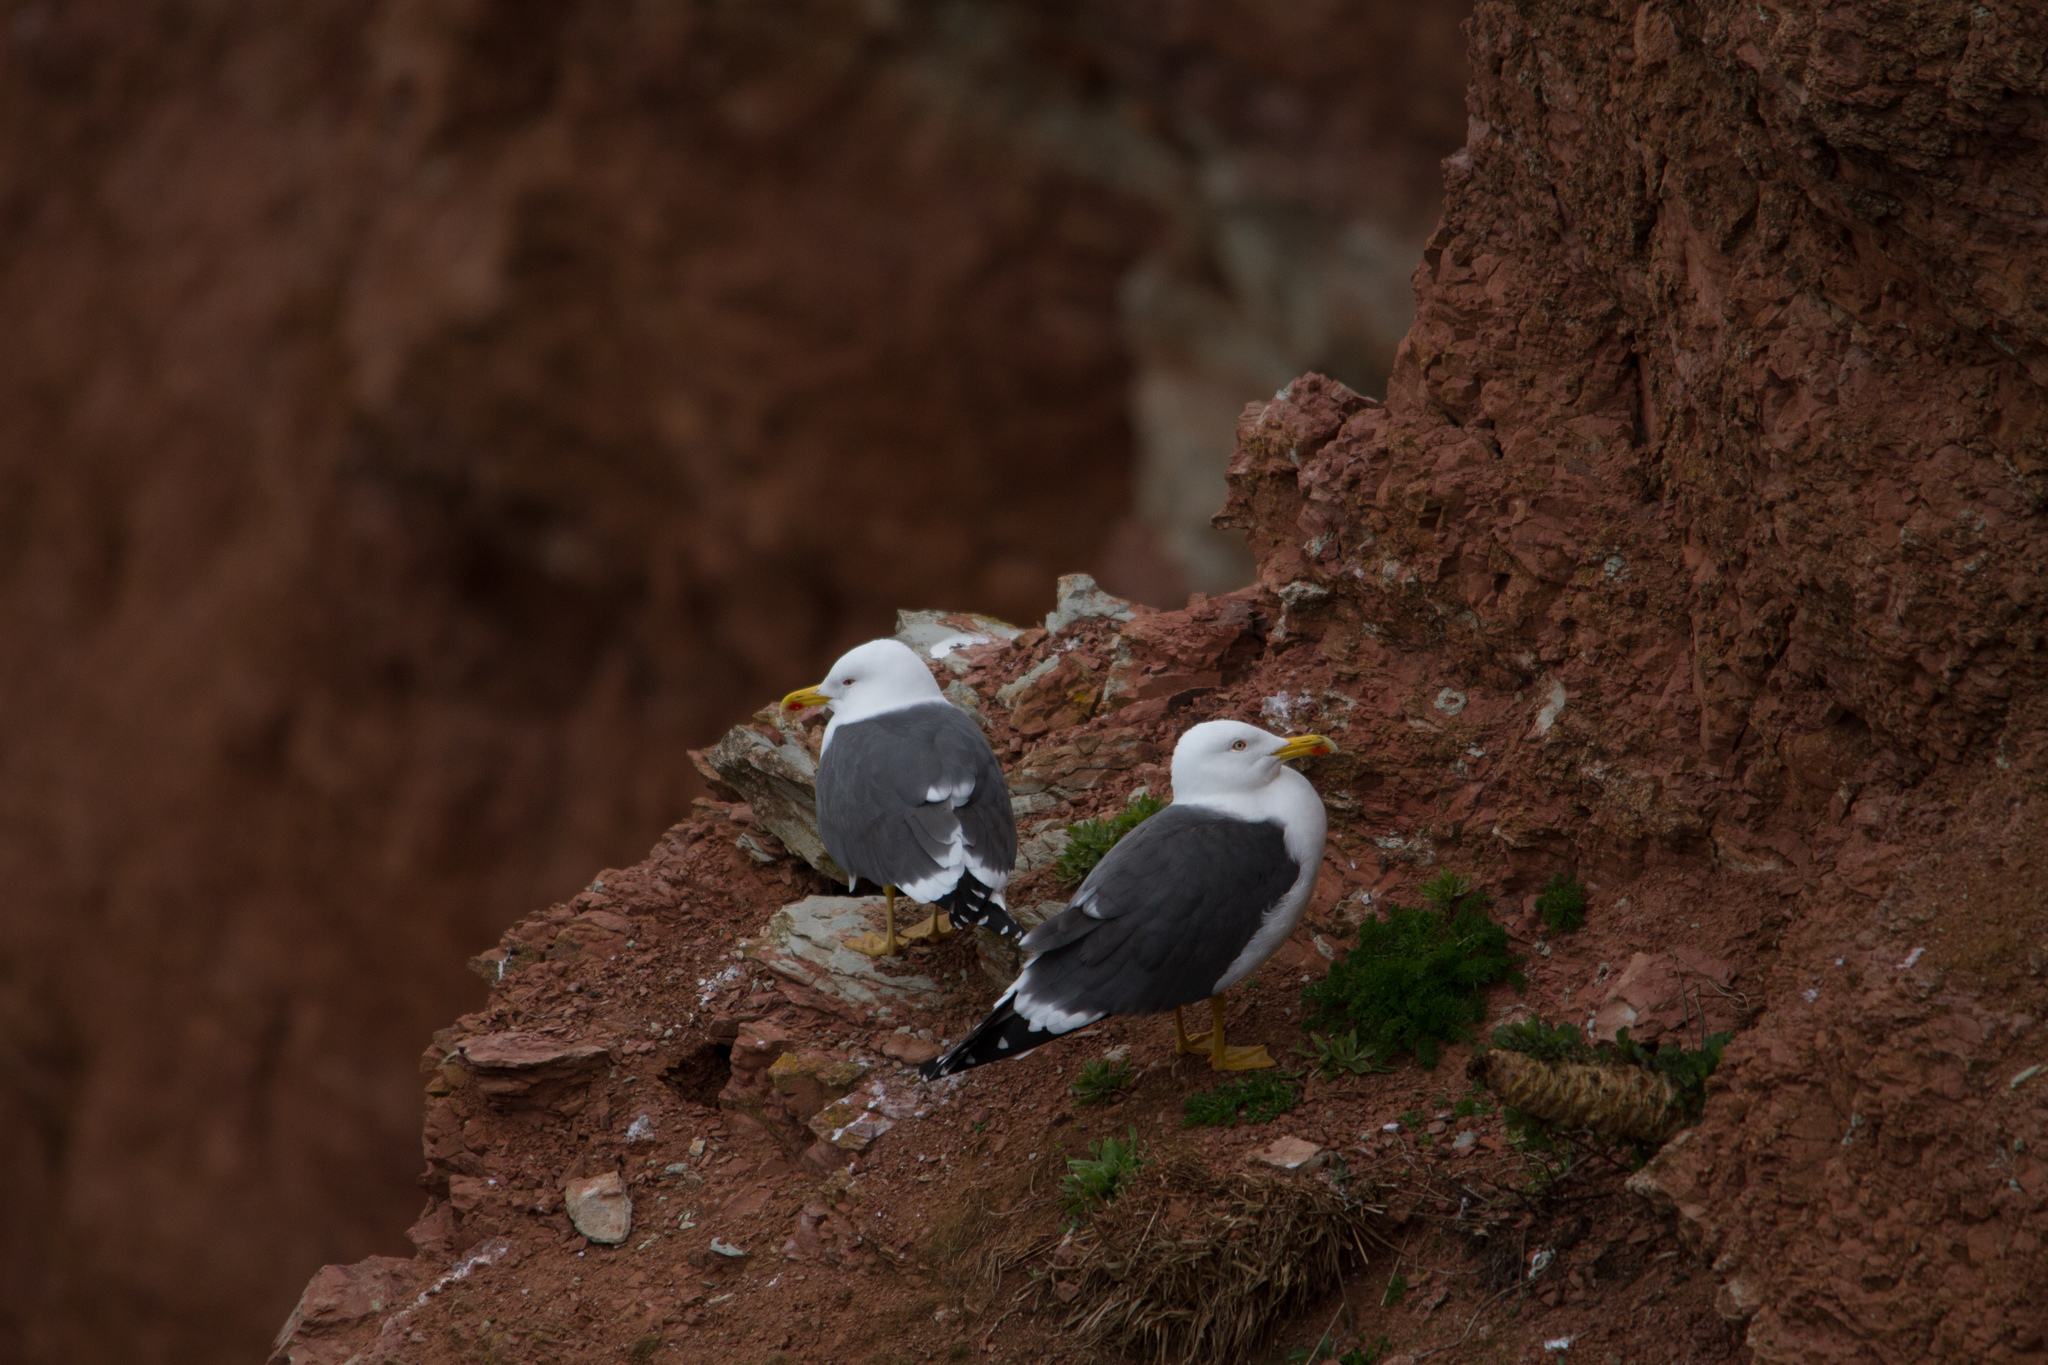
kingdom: Animalia
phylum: Chordata
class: Aves
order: Charadriiformes
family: Laridae
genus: Larus
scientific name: Larus fuscus
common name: Lesser black-backed gull
